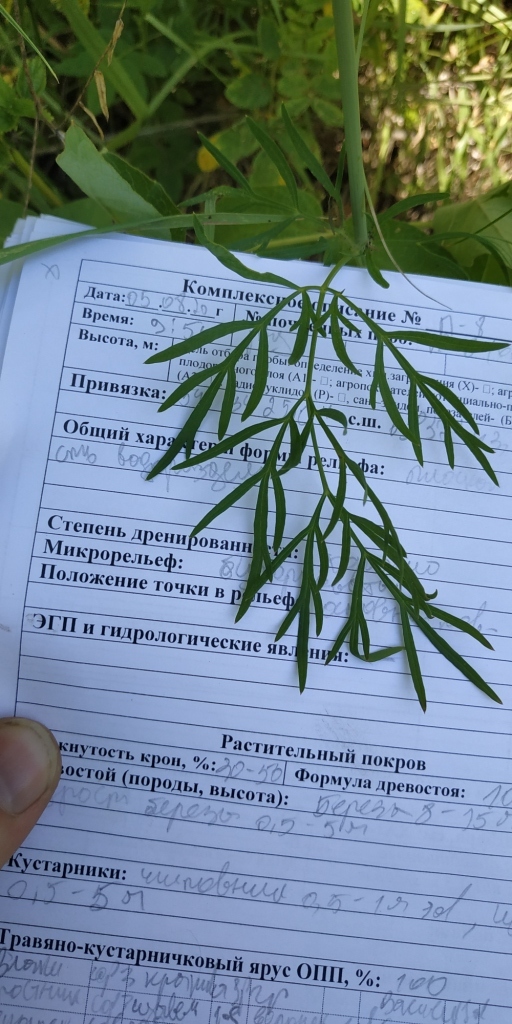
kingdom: Plantae
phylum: Tracheophyta
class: Magnoliopsida
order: Apiales
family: Apiaceae
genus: Kadenia
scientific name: Kadenia dubia
